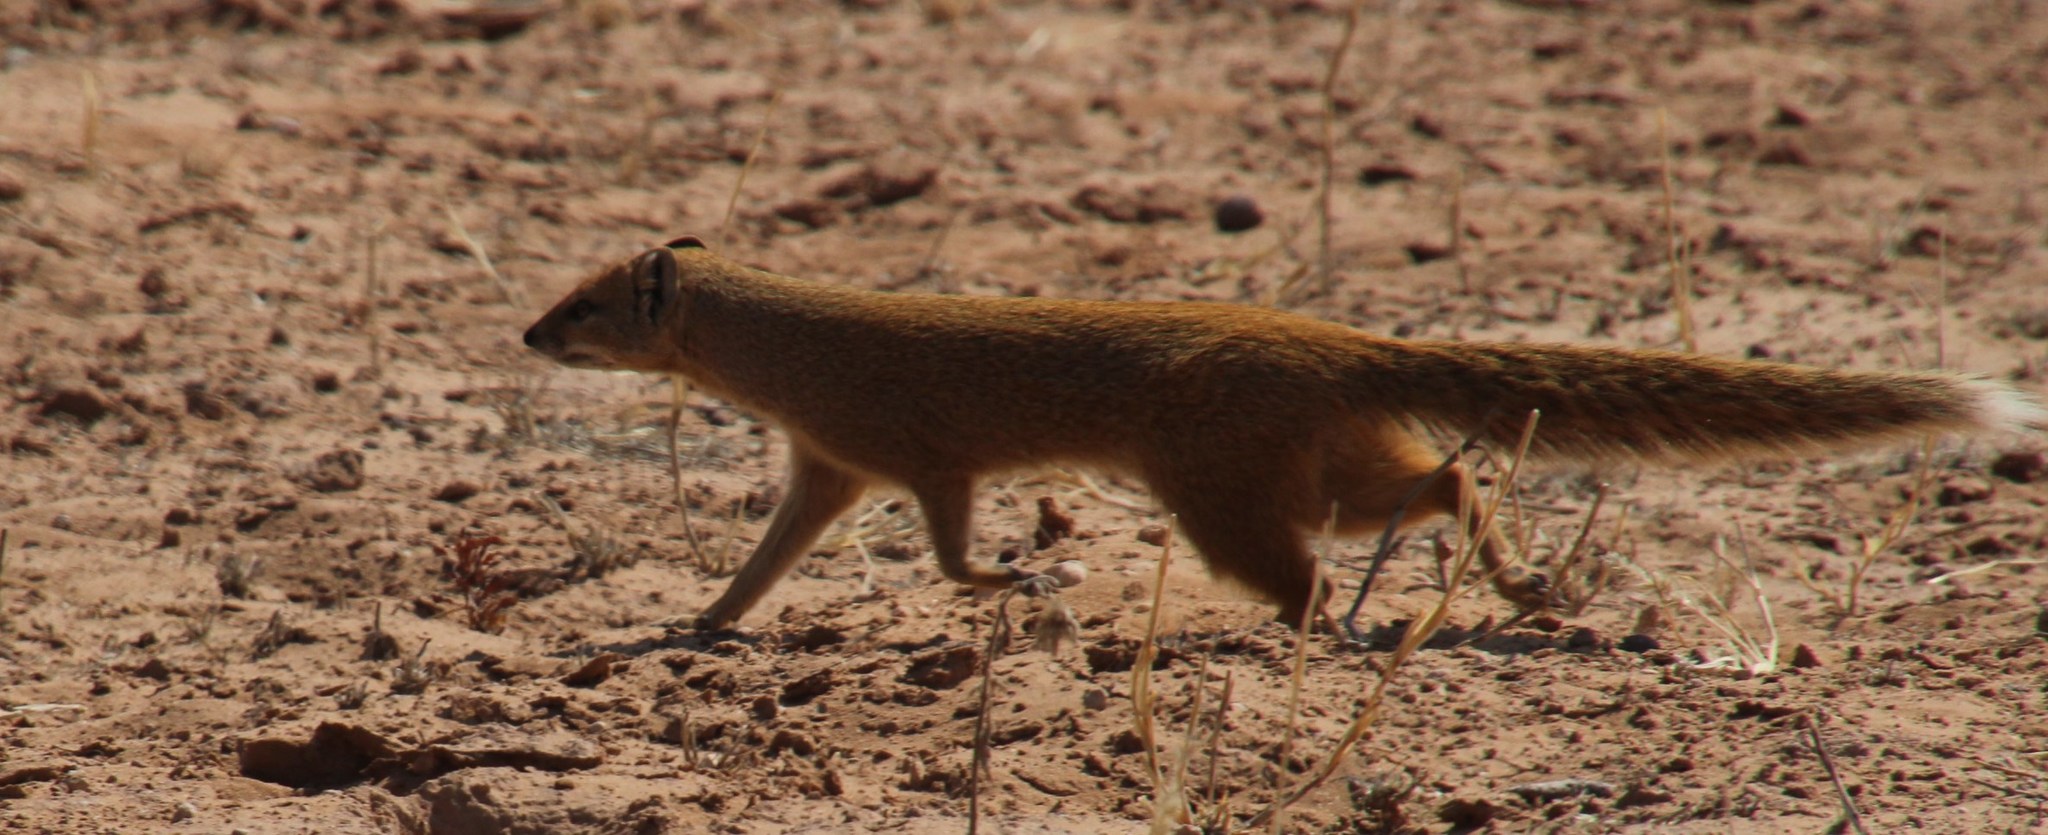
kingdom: Animalia
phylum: Chordata
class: Mammalia
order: Carnivora
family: Herpestidae
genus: Cynictis
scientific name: Cynictis penicillata
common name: Yellow mongoose
